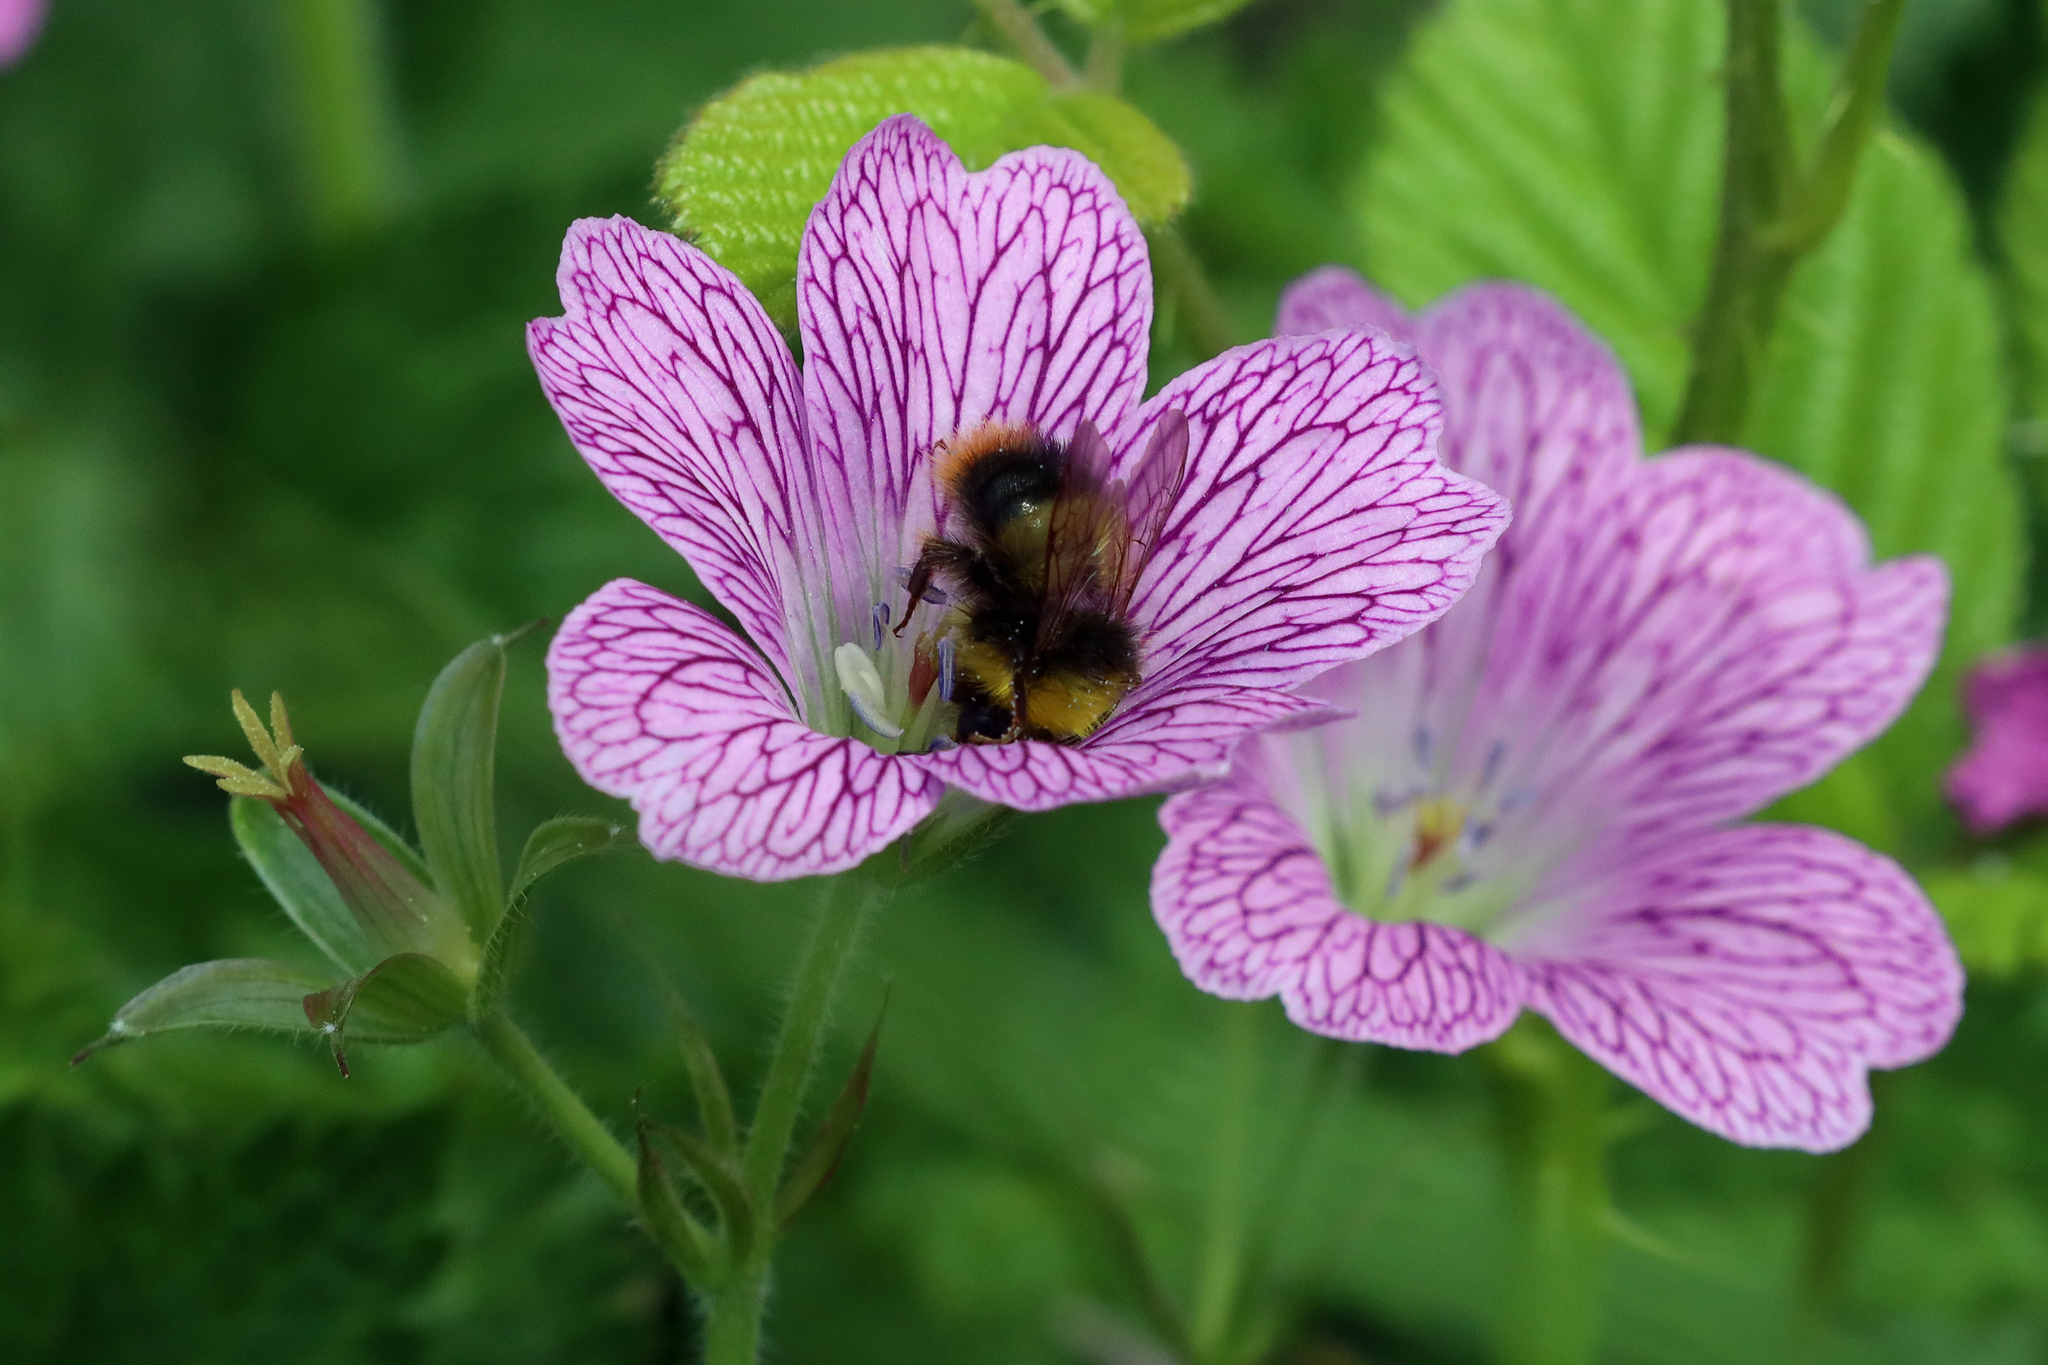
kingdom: Animalia
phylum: Arthropoda
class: Insecta
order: Hymenoptera
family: Apidae
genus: Bombus
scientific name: Bombus pratorum
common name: Early humble-bee
